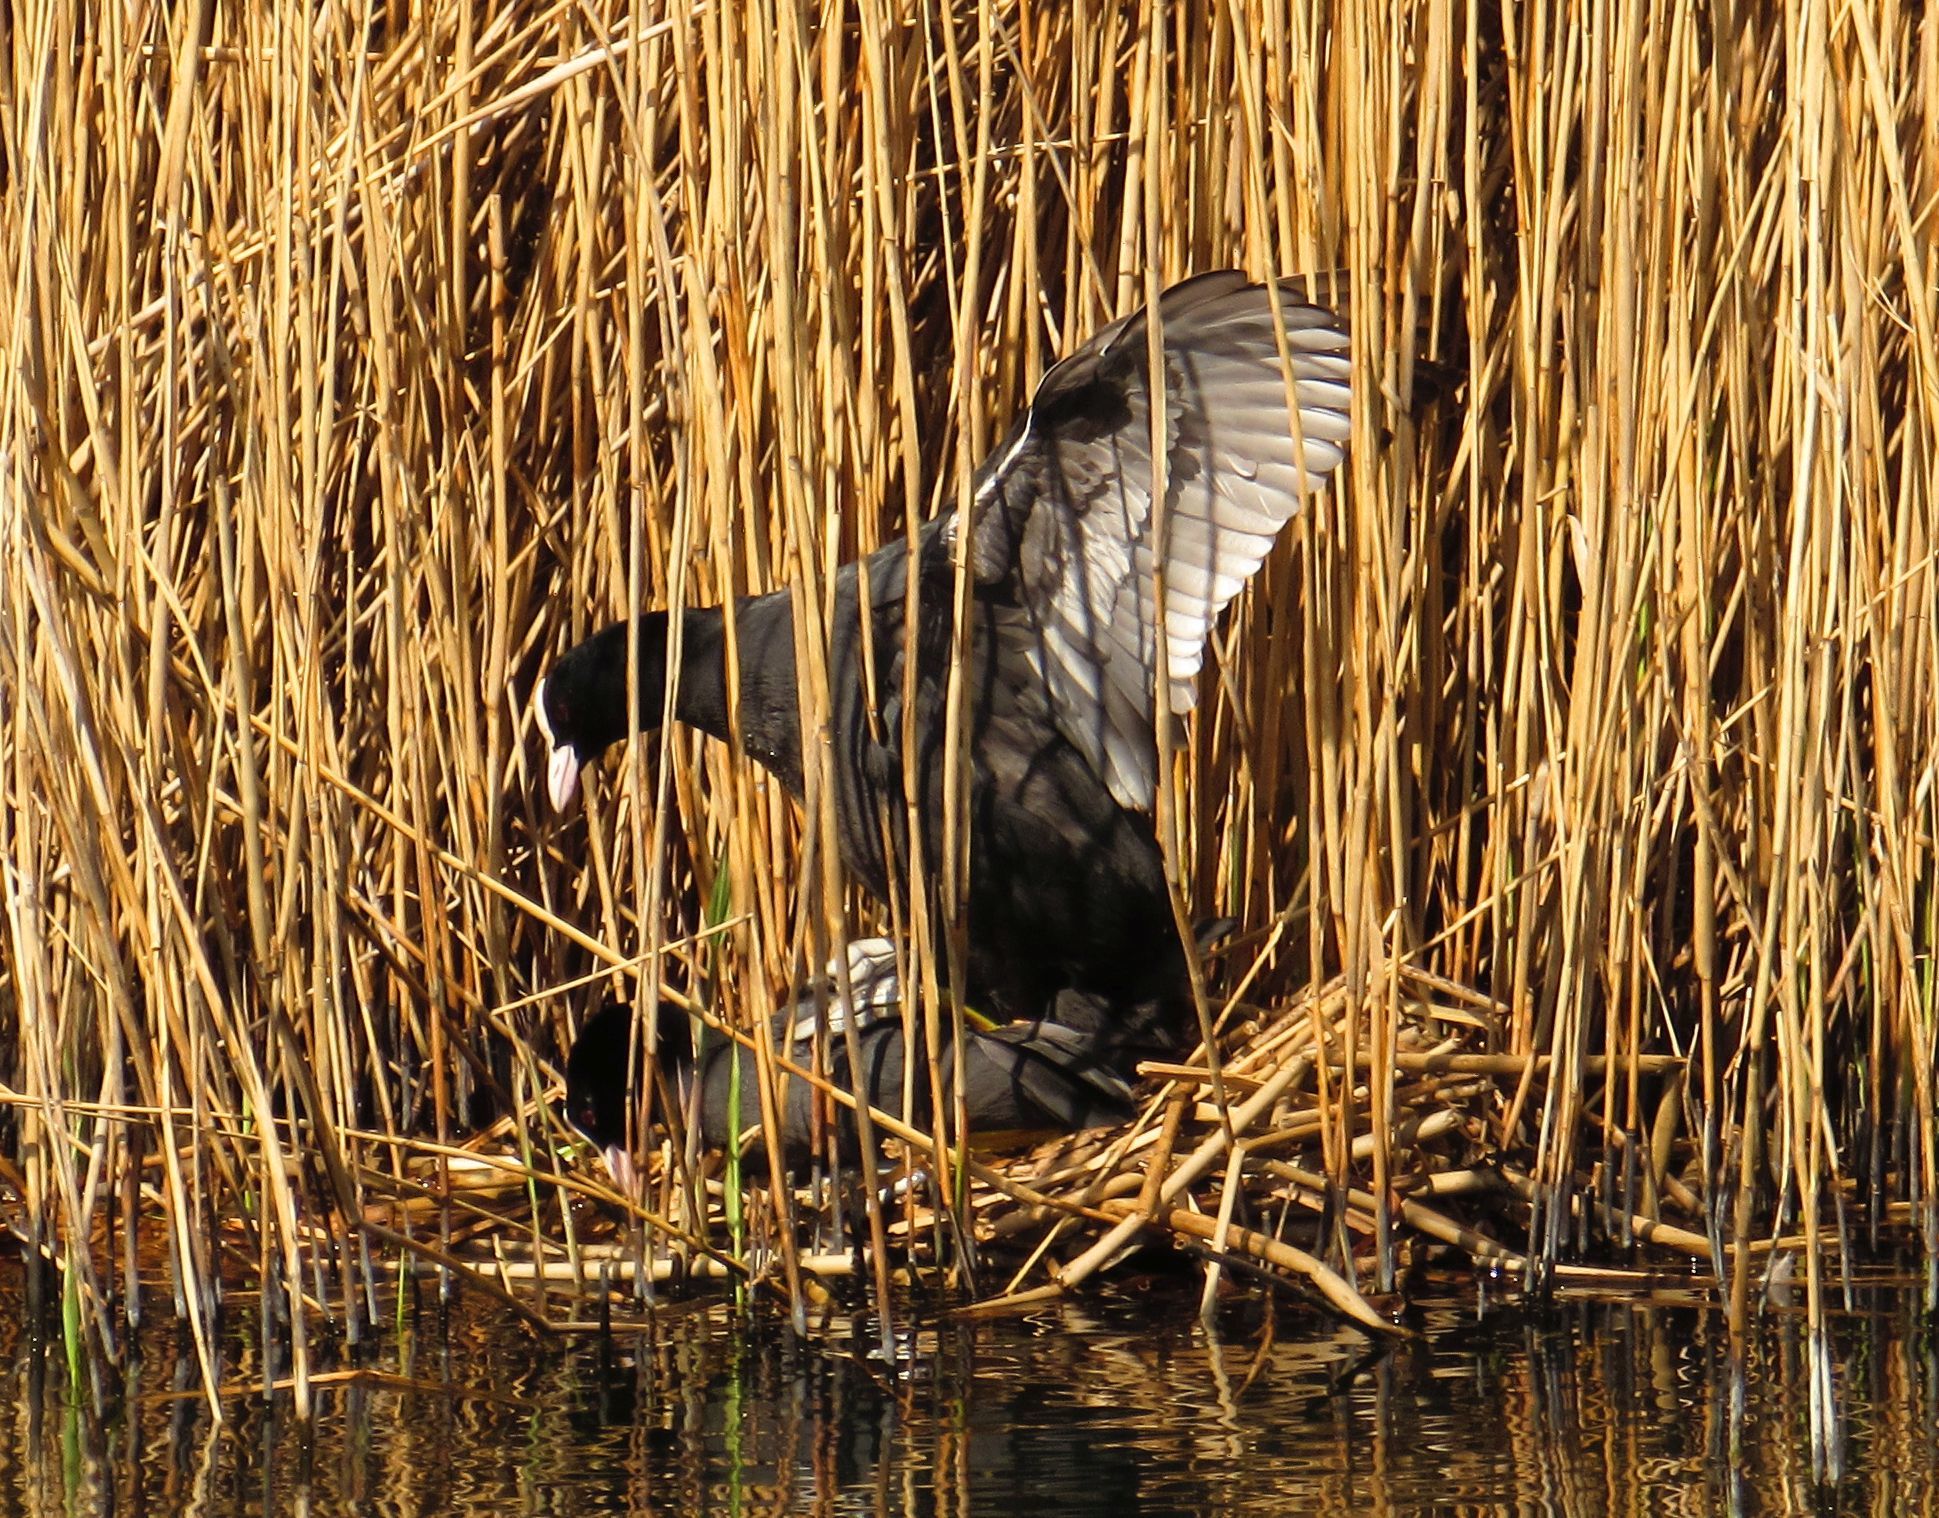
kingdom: Animalia
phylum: Chordata
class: Aves
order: Gruiformes
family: Rallidae
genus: Fulica
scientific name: Fulica atra
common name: Eurasian coot
